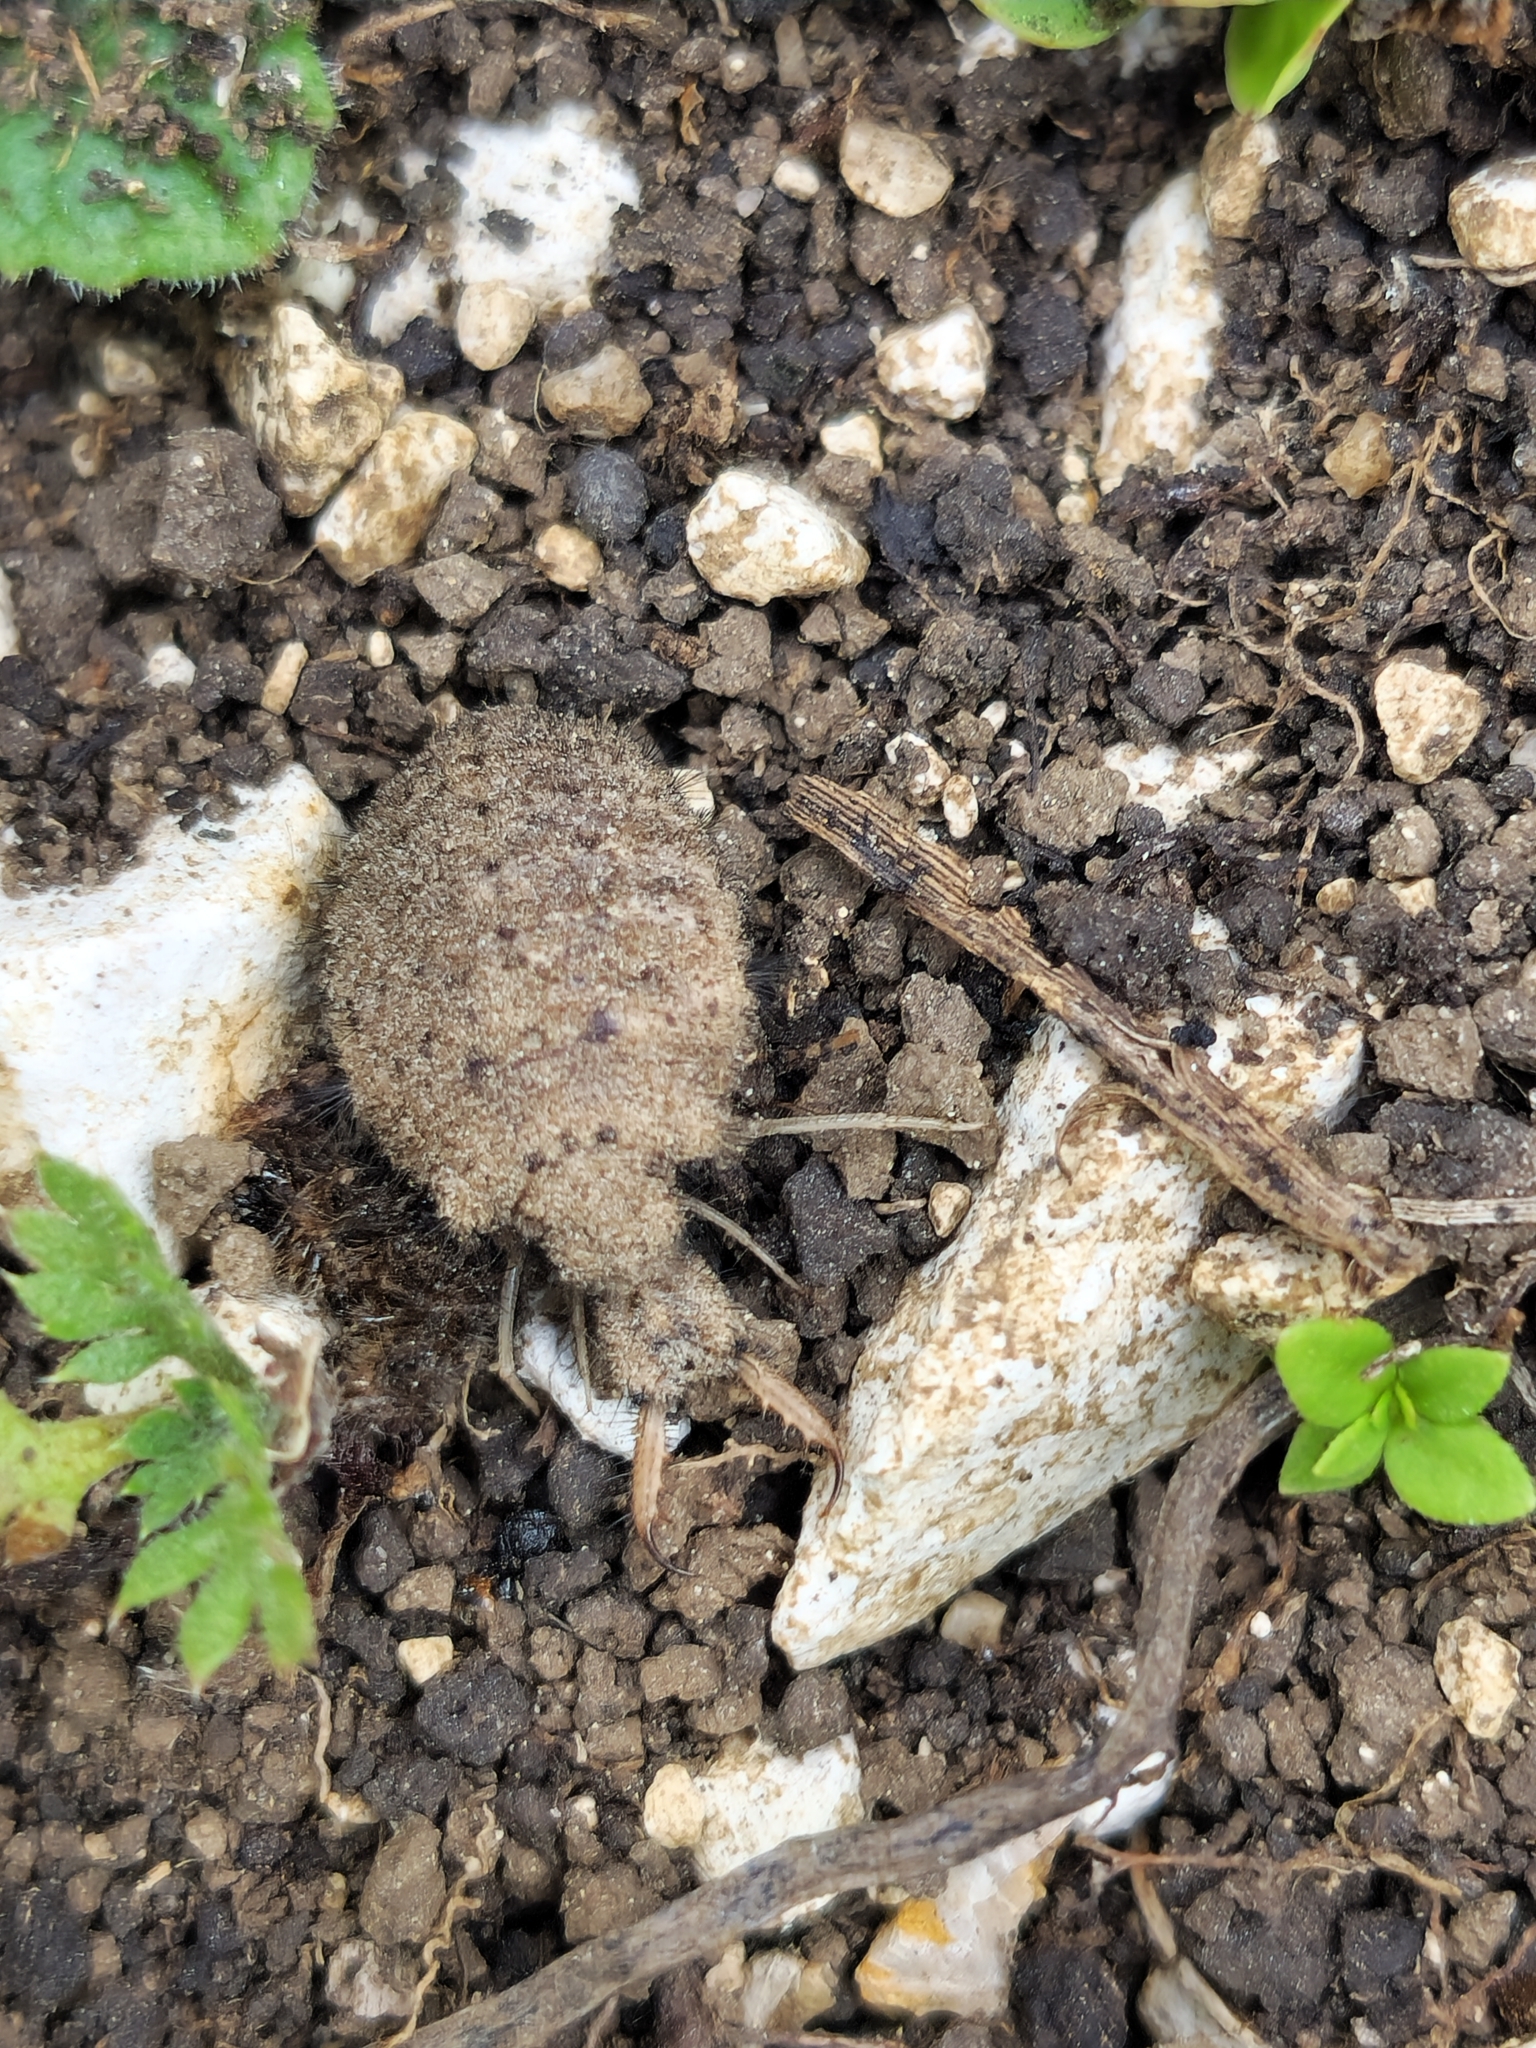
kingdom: Animalia
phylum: Arthropoda
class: Insecta
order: Neuroptera
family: Myrmeleontidae
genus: Myrmeleon
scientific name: Myrmeleon formicarius
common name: Ant-lion
